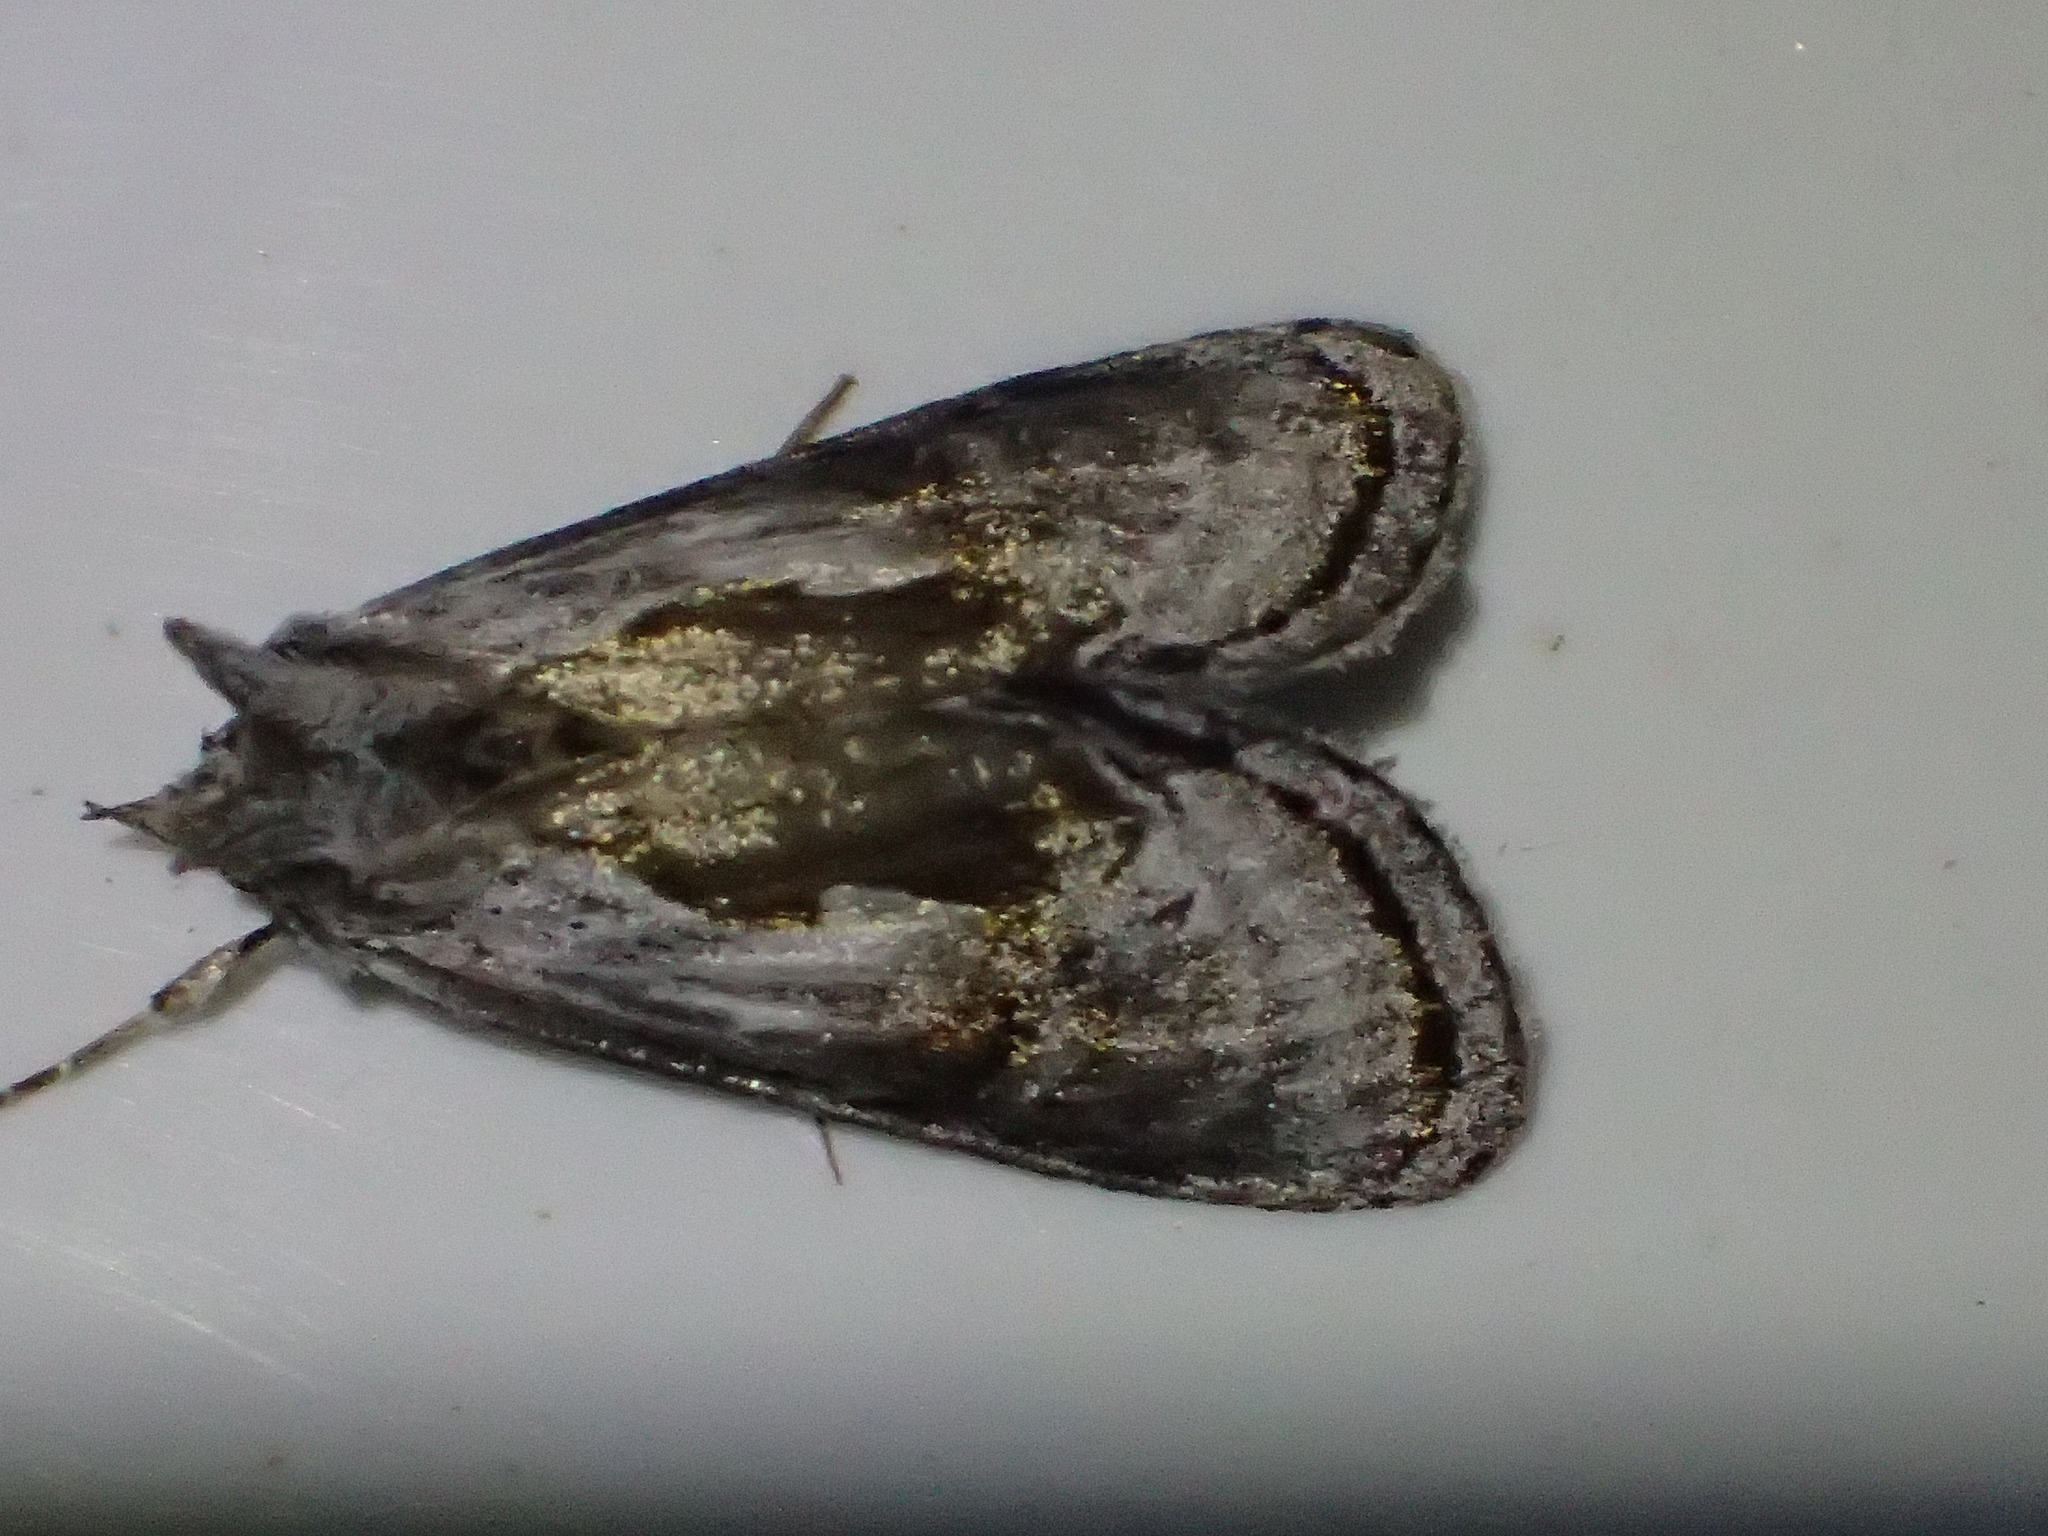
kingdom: Animalia
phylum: Arthropoda
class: Insecta
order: Lepidoptera
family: Noctuidae
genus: Chrysanympha
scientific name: Chrysanympha formosa
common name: Formosa looper moth
